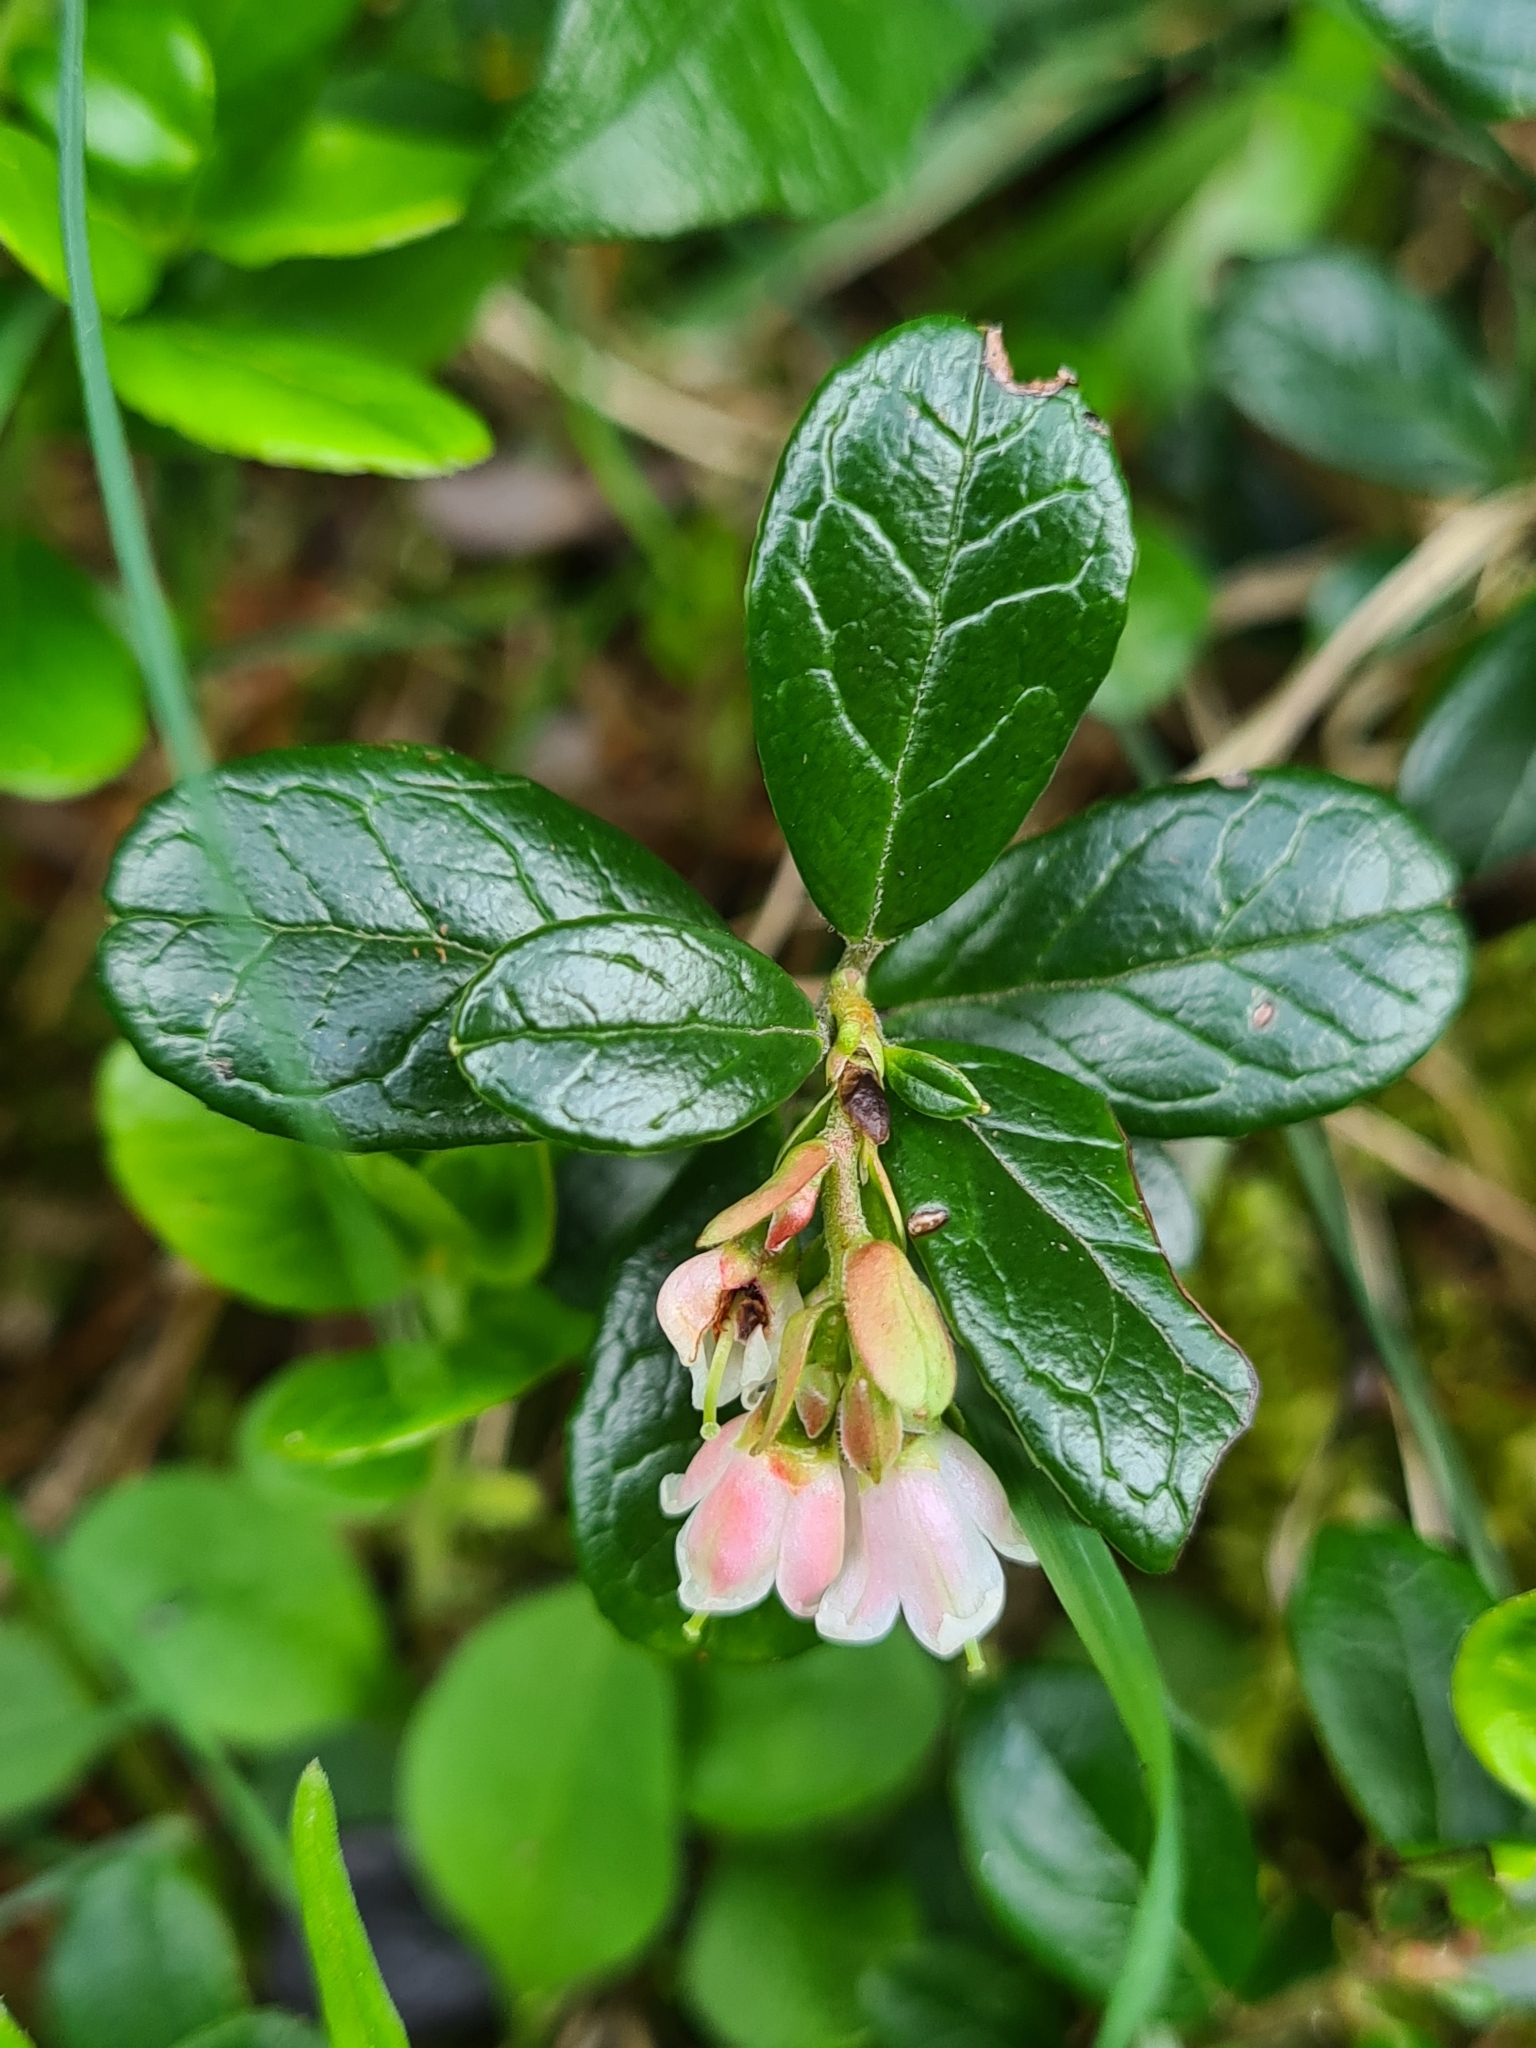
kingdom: Plantae
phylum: Tracheophyta
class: Magnoliopsida
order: Ericales
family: Ericaceae
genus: Vaccinium
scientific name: Vaccinium vitis-idaea
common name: Cowberry
